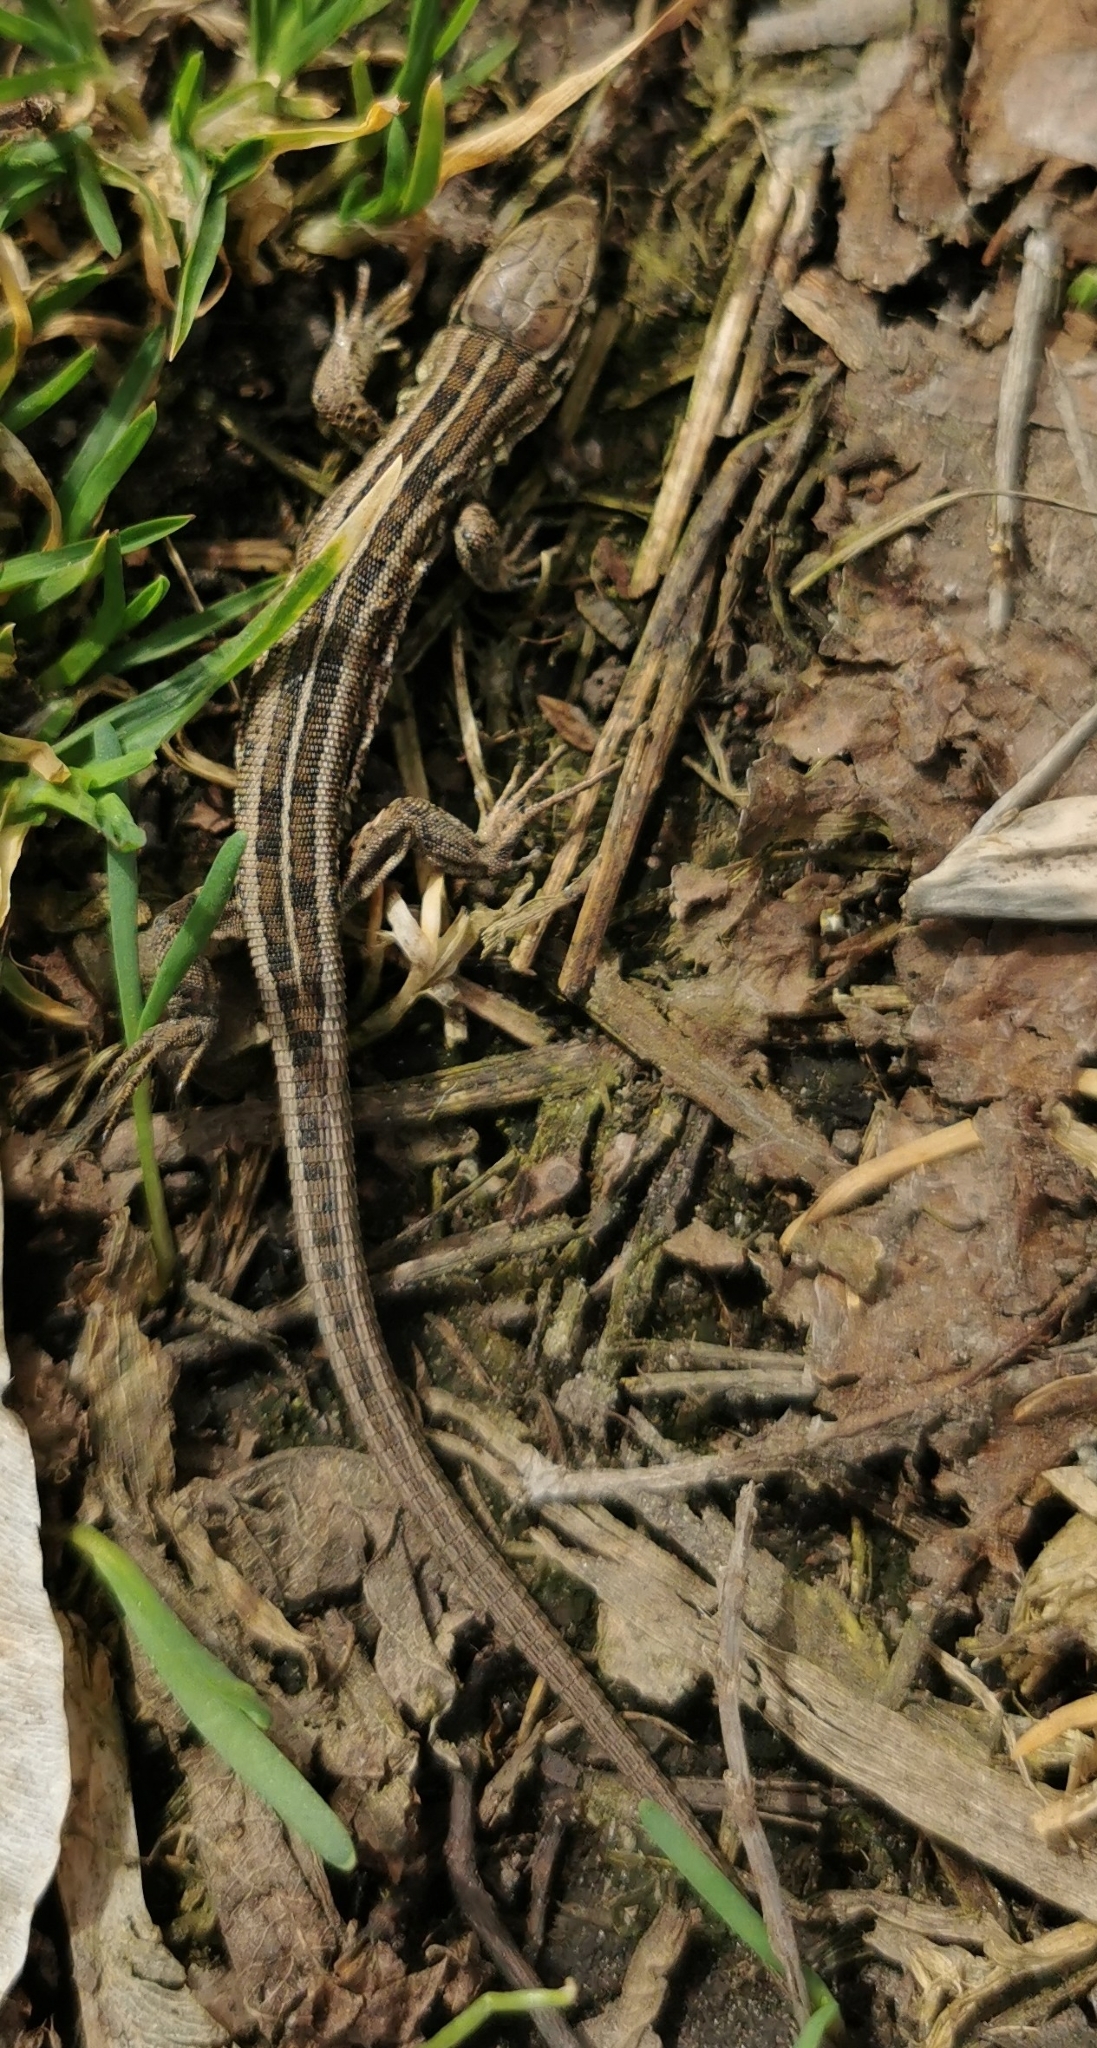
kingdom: Animalia
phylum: Chordata
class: Squamata
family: Lacertidae
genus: Lacerta
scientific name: Lacerta agilis
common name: Sand lizard
